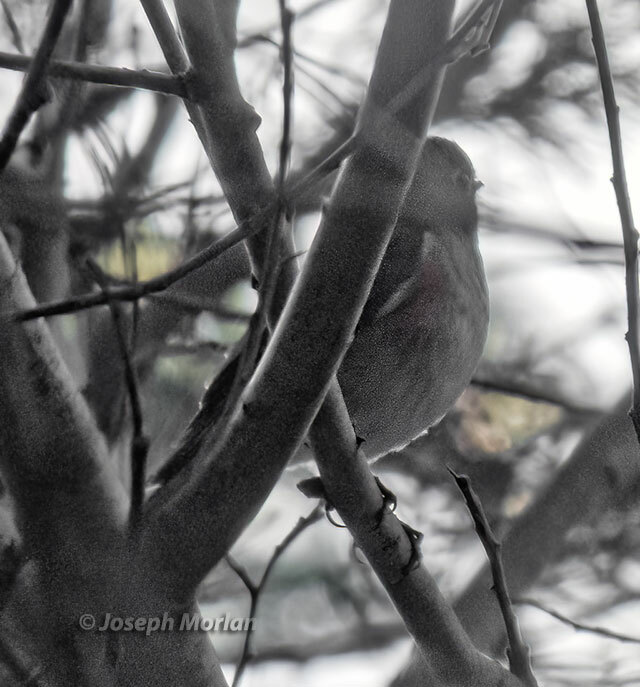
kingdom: Animalia
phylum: Chordata
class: Aves
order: Passeriformes
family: Muscicapidae
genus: Tarsiger
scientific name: Tarsiger cyanurus
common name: Red-flanked bluetail
